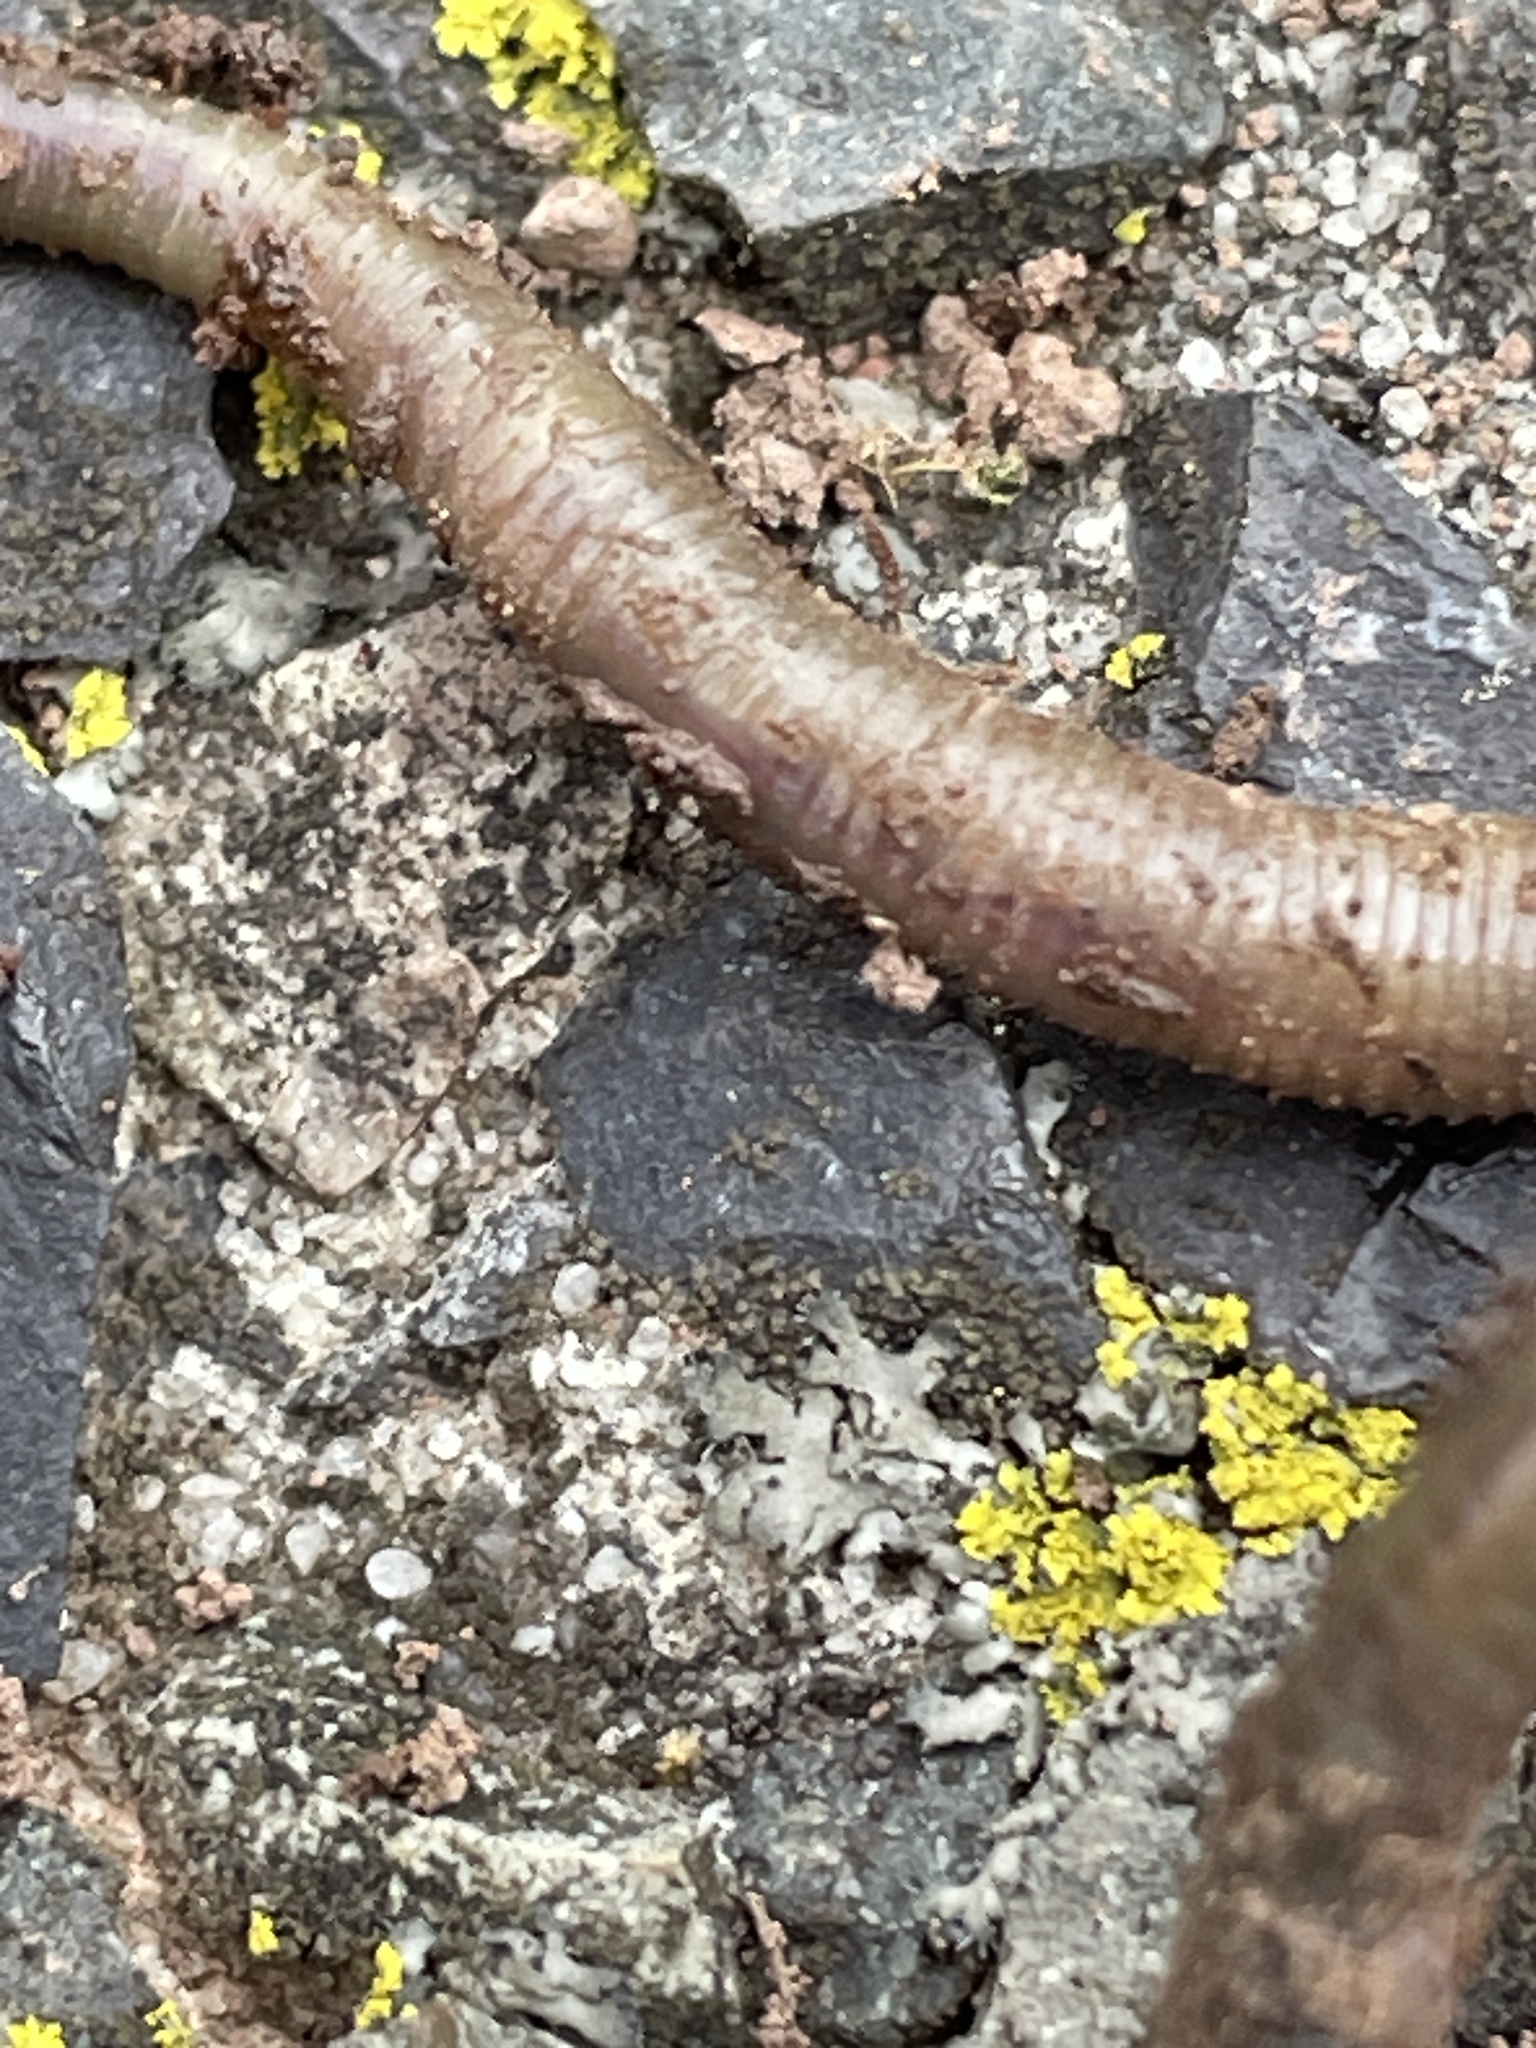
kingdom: Animalia
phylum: Annelida
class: Clitellata
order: Crassiclitellata
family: Lumbricidae
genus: Allolobophora
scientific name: Allolobophora chlorotica
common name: Green worm
